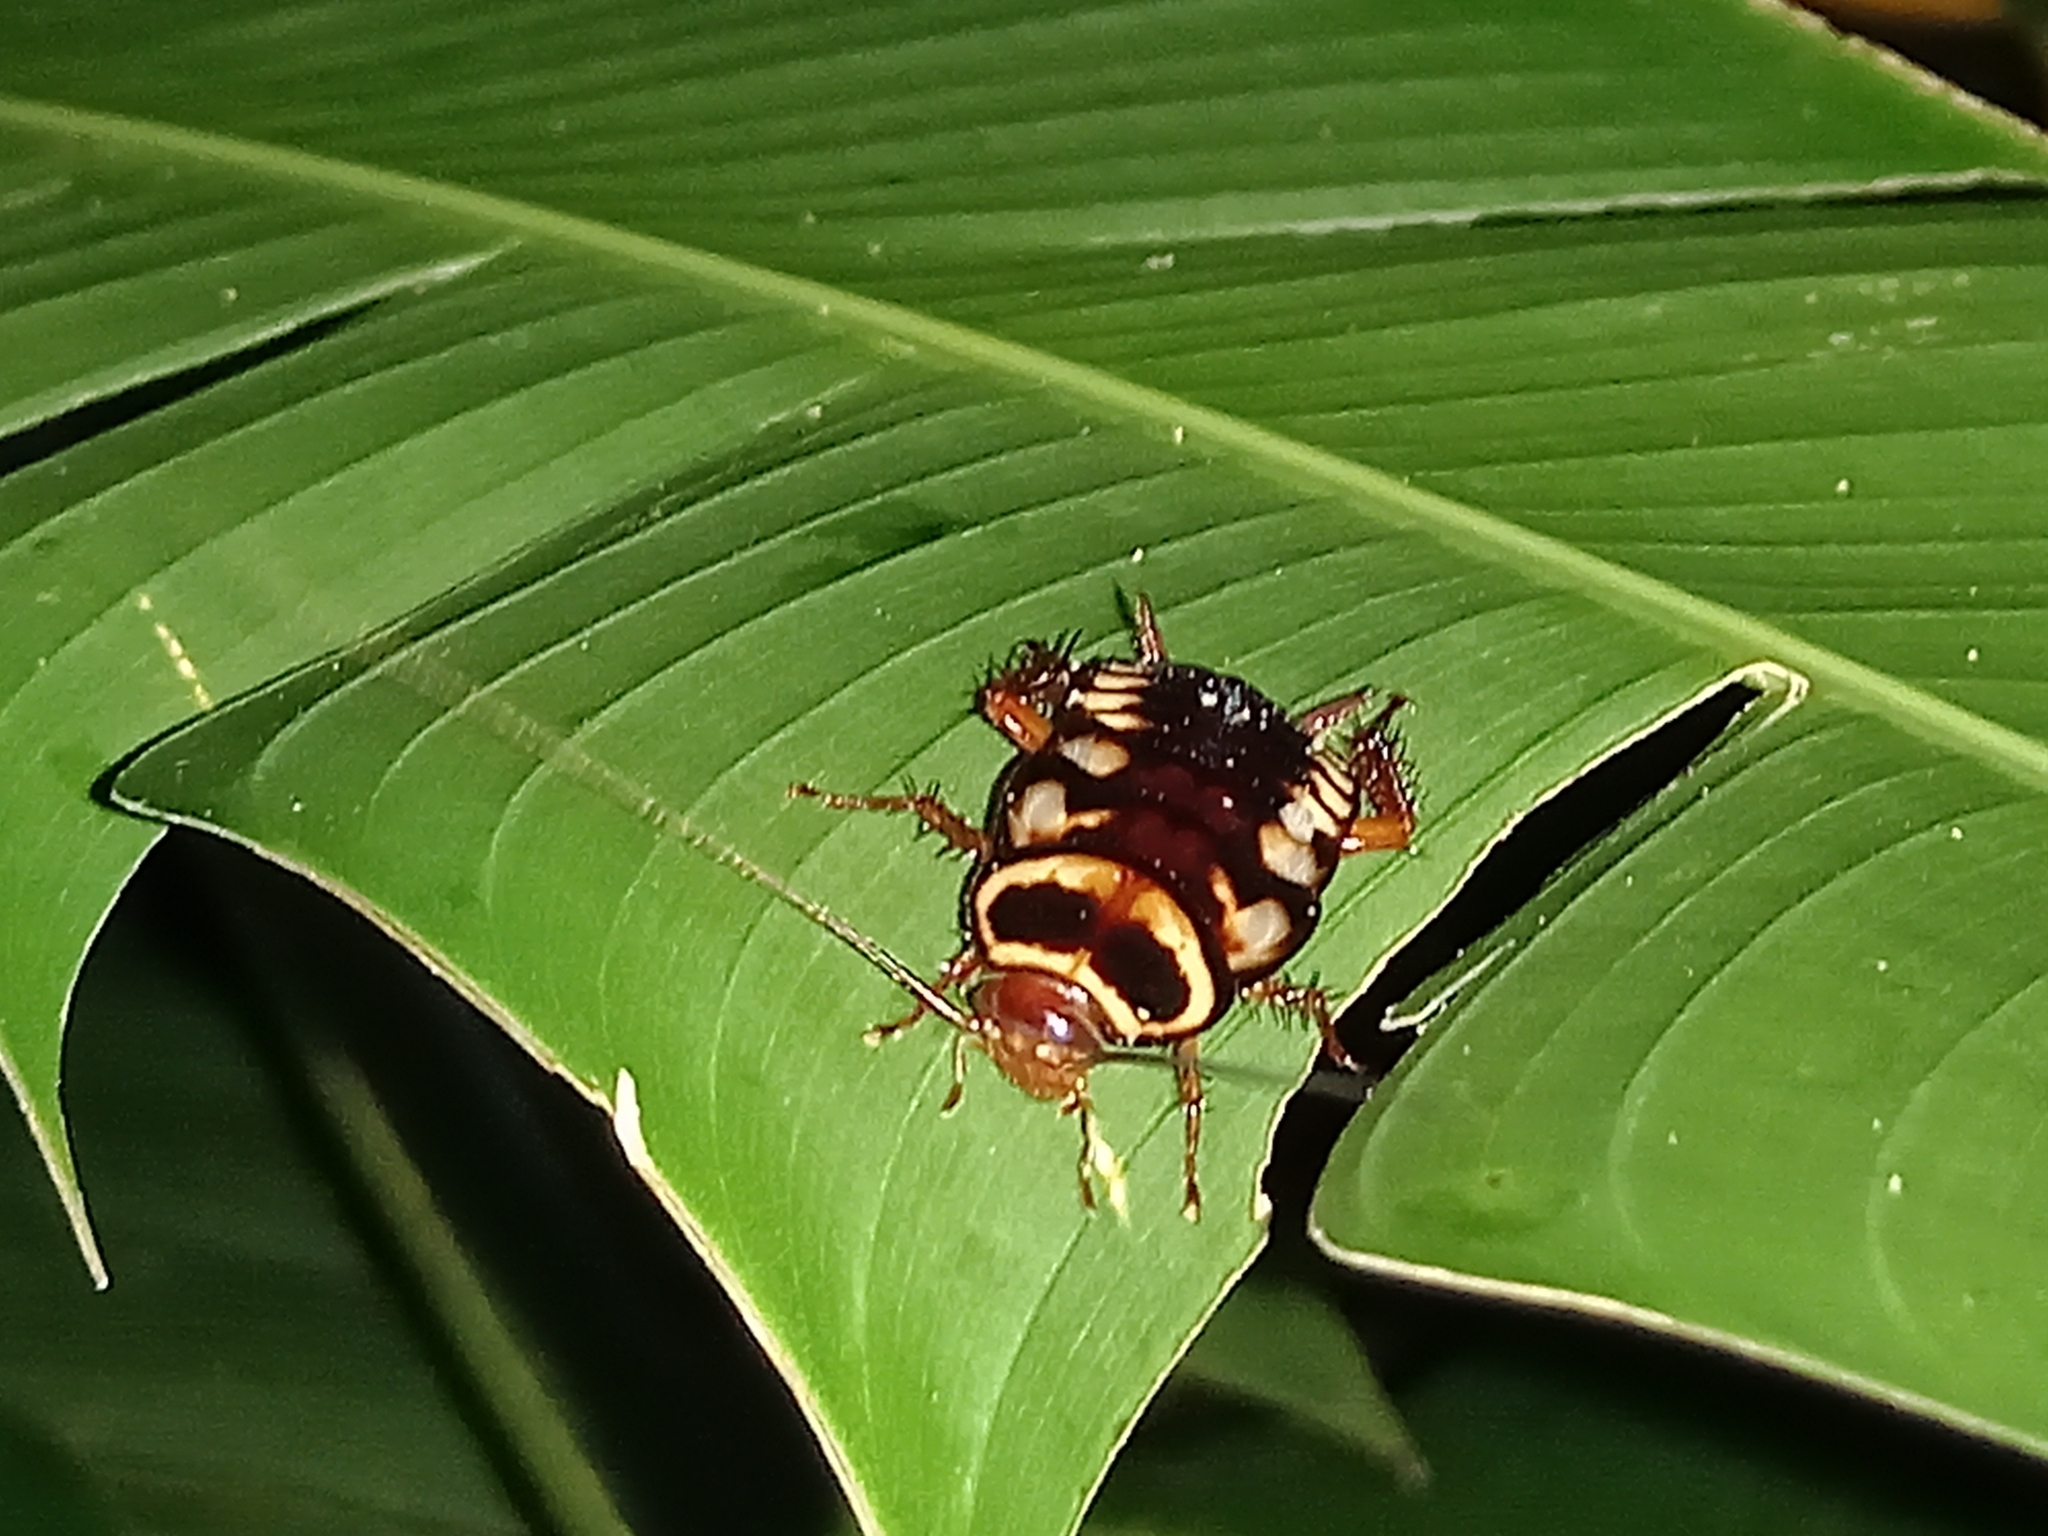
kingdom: Animalia
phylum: Arthropoda
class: Insecta
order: Blattodea
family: Blattidae
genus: Periplaneta
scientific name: Periplaneta australasiae
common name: Australian cockroach
